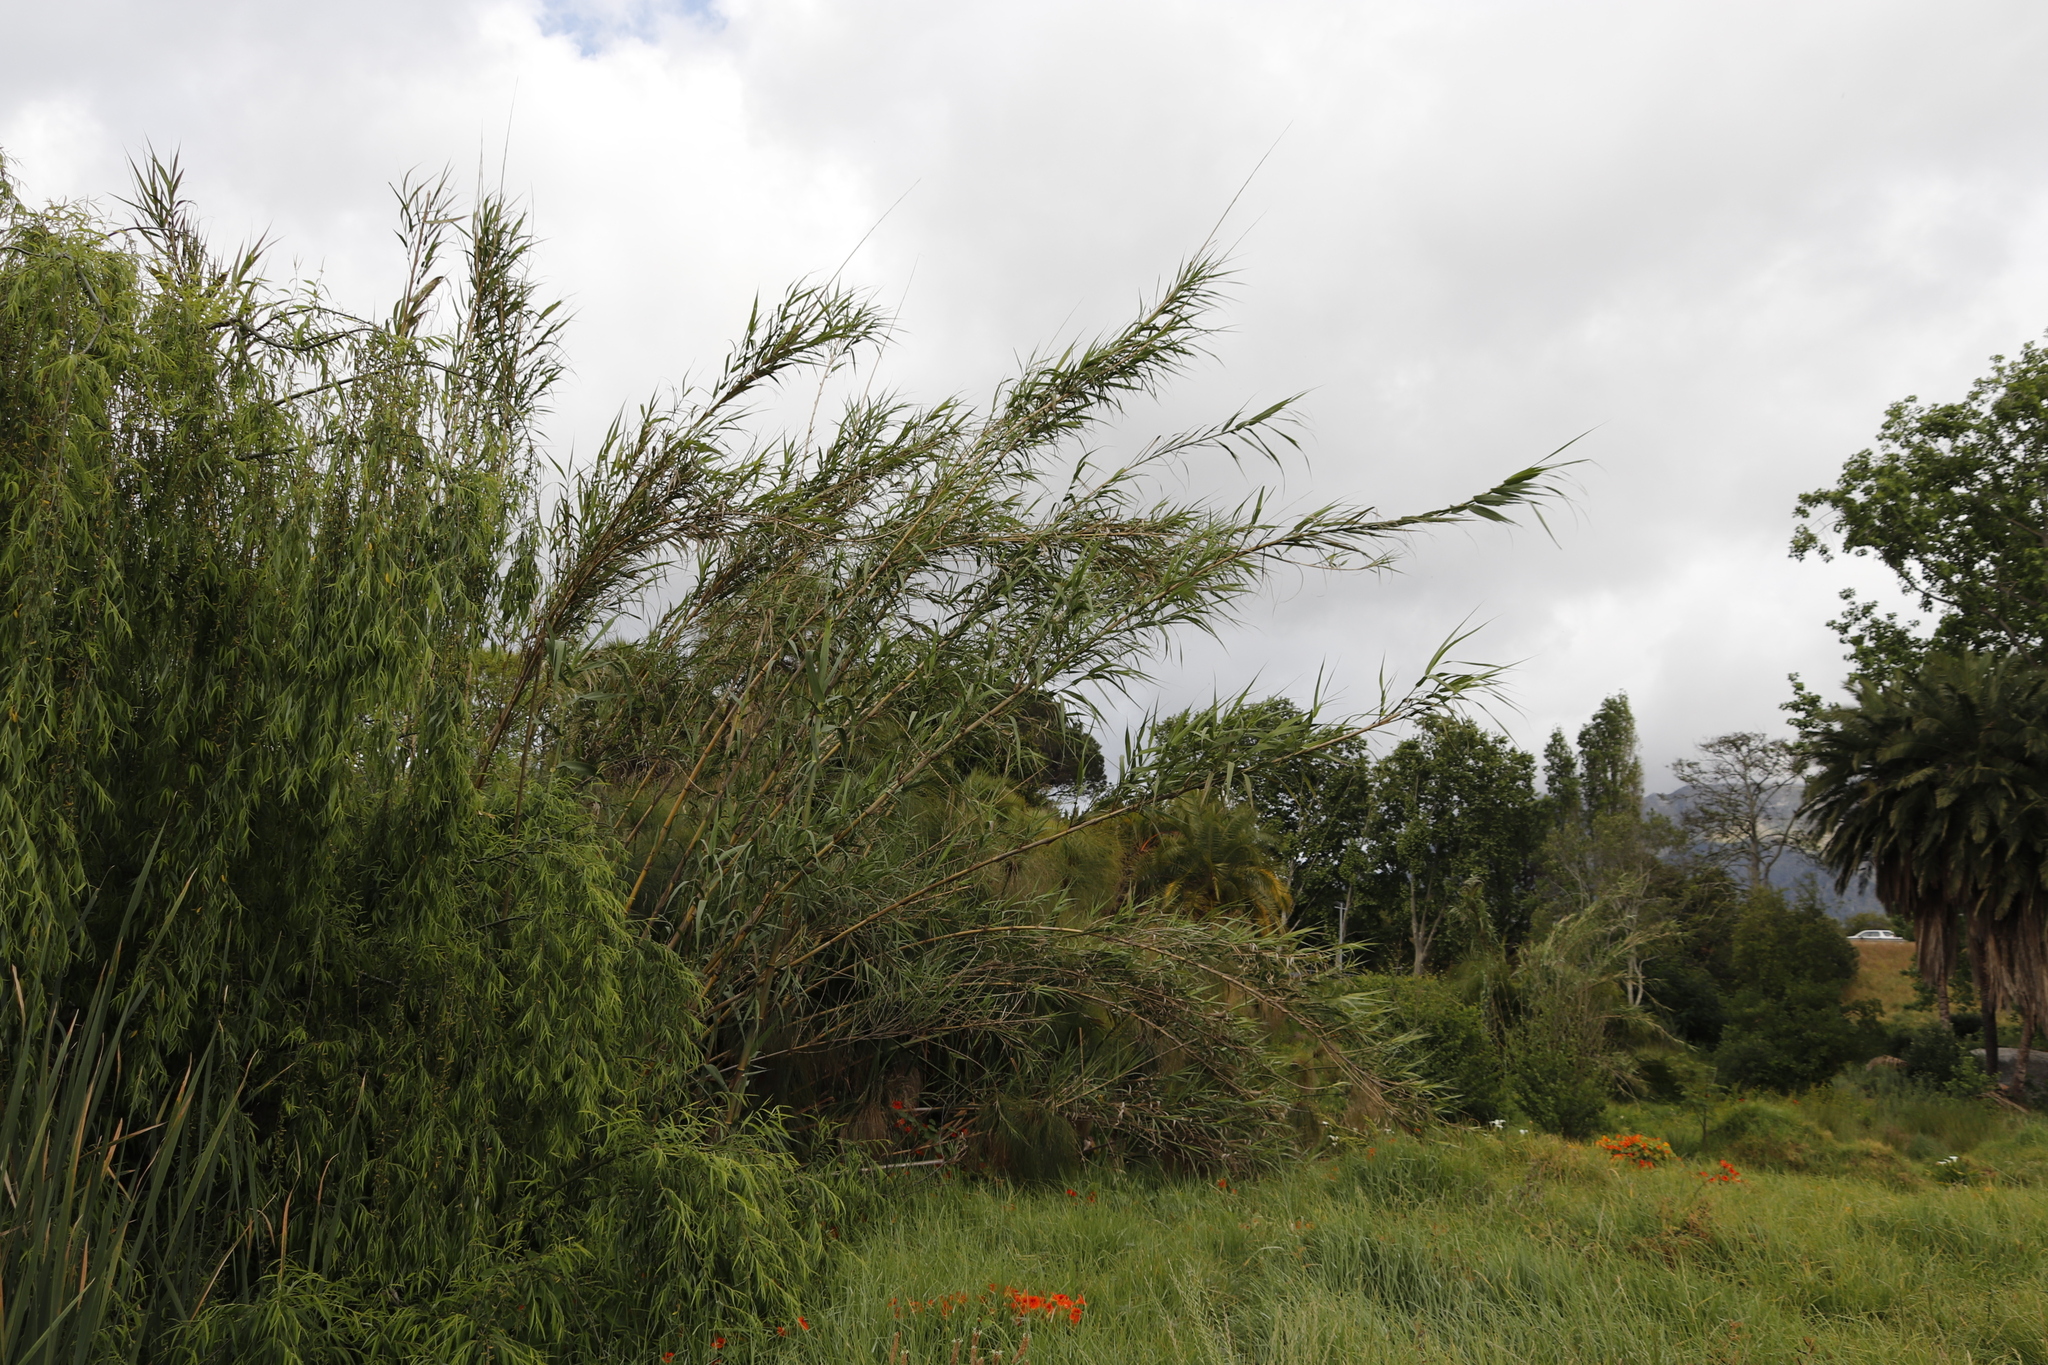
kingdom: Plantae
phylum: Tracheophyta
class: Liliopsida
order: Poales
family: Poaceae
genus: Arundo
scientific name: Arundo donax
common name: Giant reed
